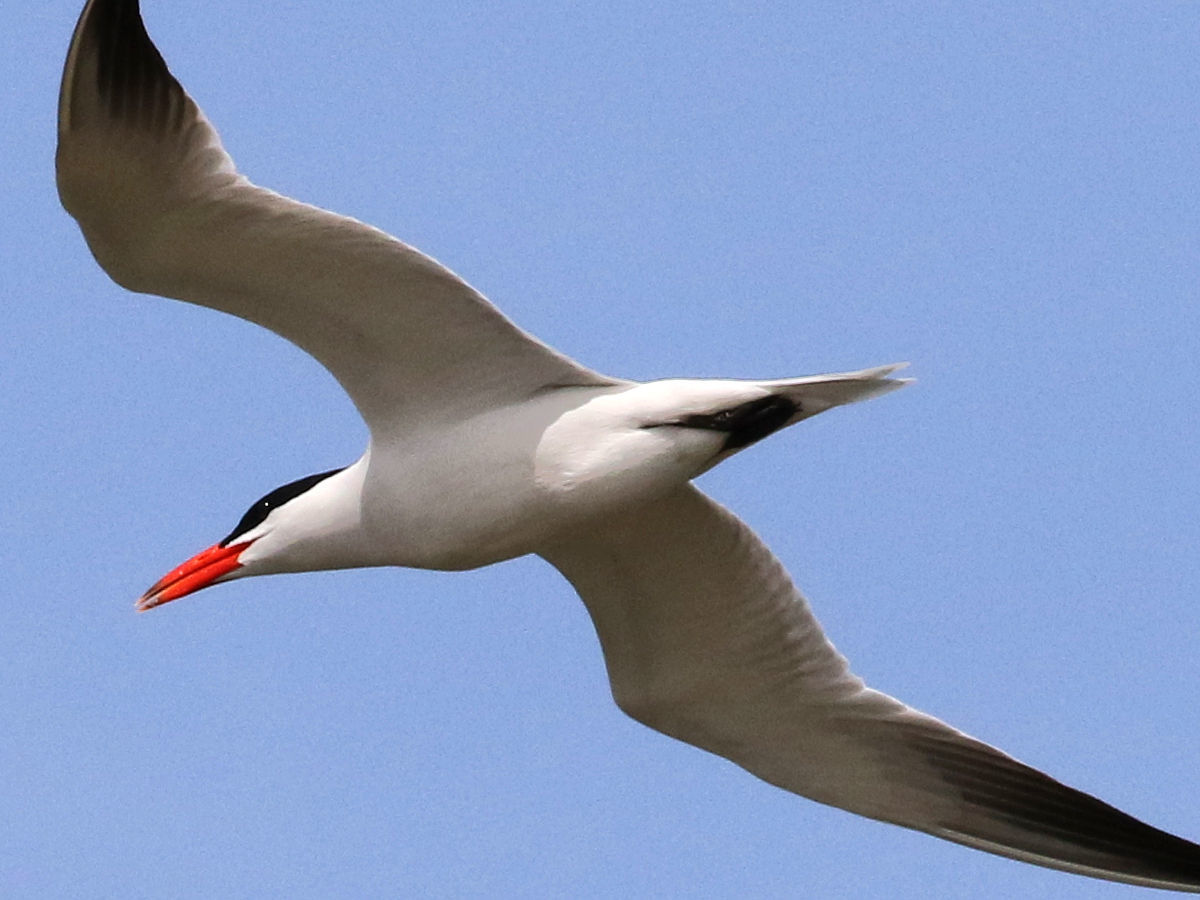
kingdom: Animalia
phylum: Chordata
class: Aves
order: Charadriiformes
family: Laridae
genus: Hydroprogne
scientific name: Hydroprogne caspia
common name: Caspian tern
